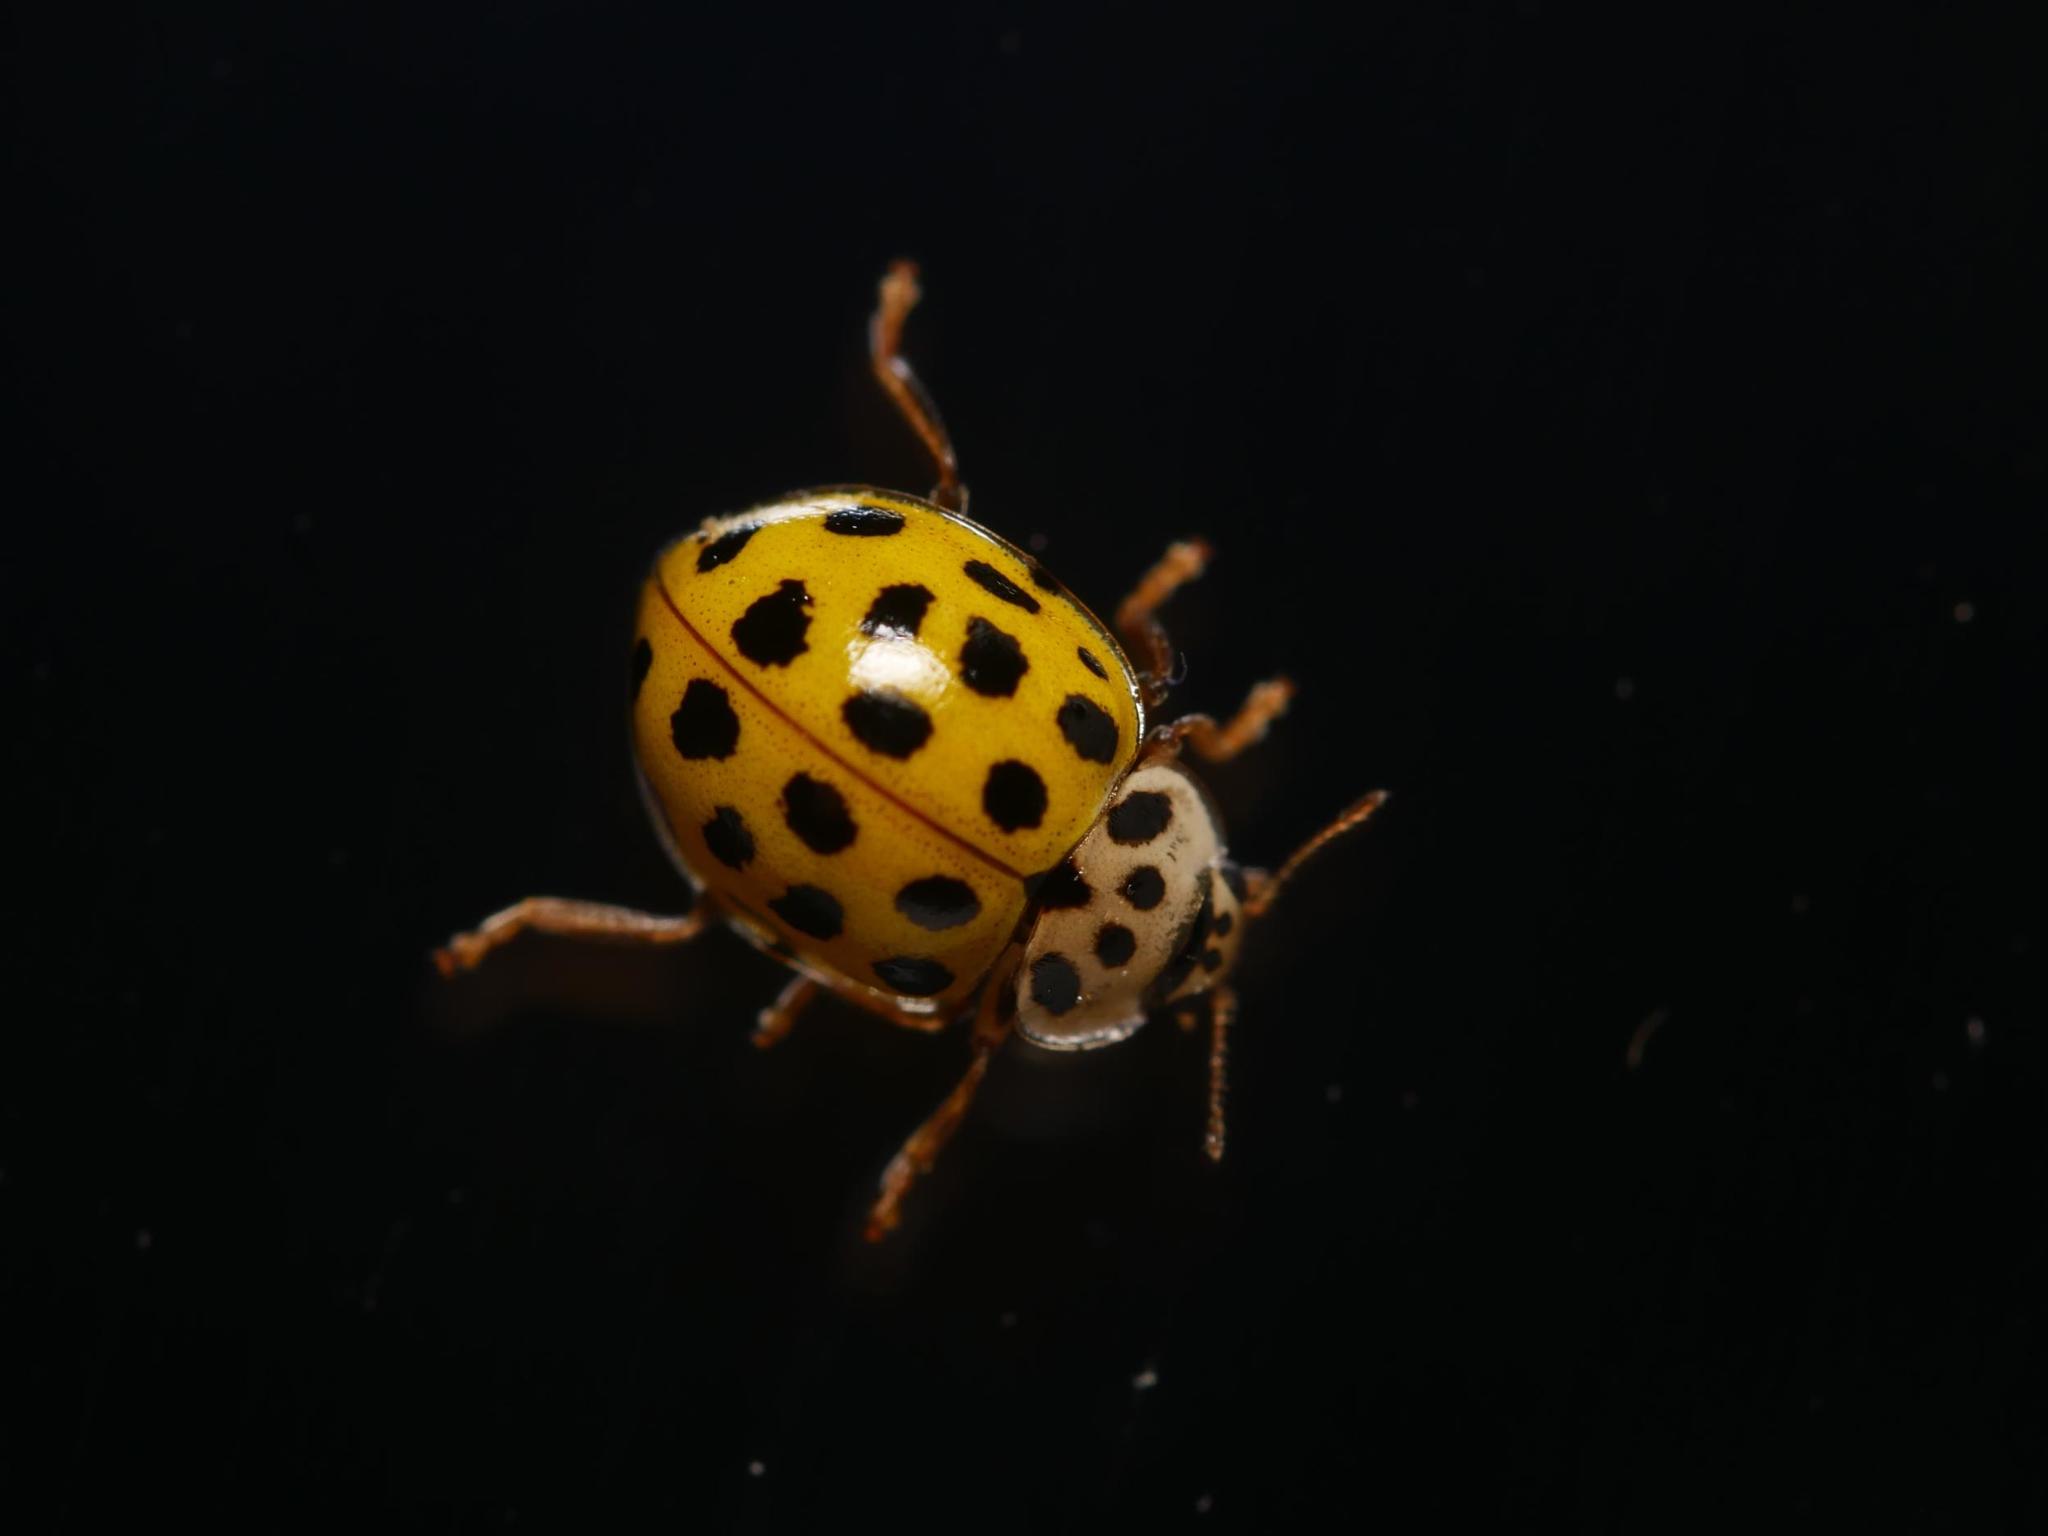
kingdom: Animalia
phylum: Arthropoda
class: Insecta
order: Coleoptera
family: Coccinellidae
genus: Psyllobora
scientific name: Psyllobora vigintiduopunctata
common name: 22-spot ladybird
